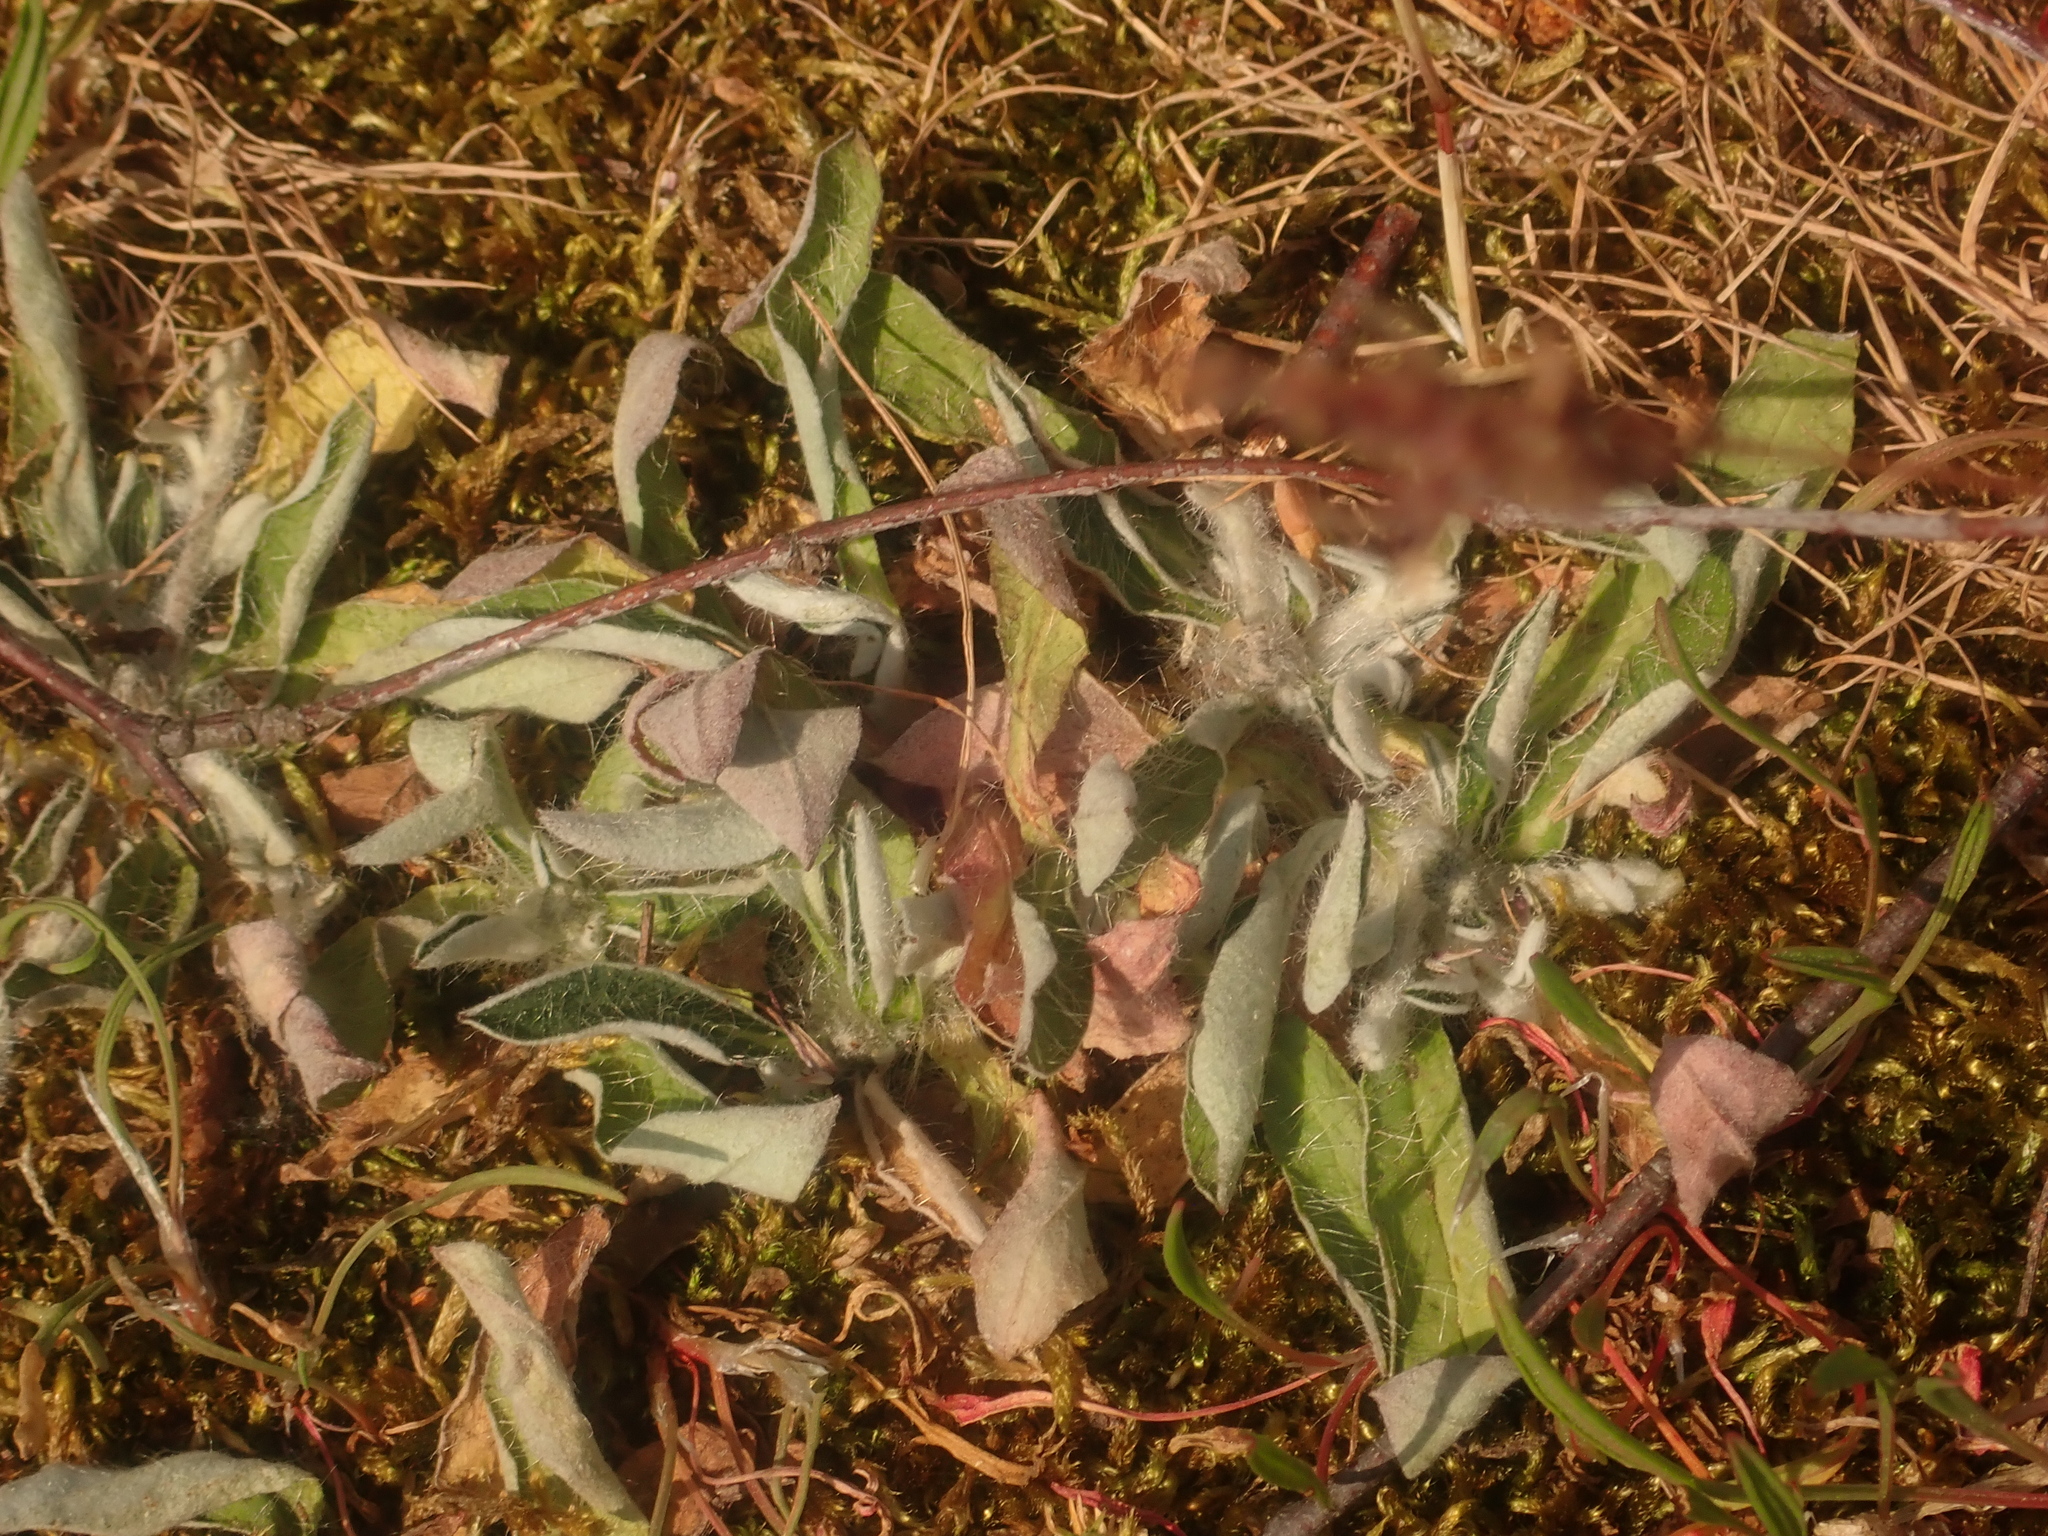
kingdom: Plantae
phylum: Tracheophyta
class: Magnoliopsida
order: Asterales
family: Asteraceae
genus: Pilosella
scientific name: Pilosella officinarum
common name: Mouse-ear hawkweed
